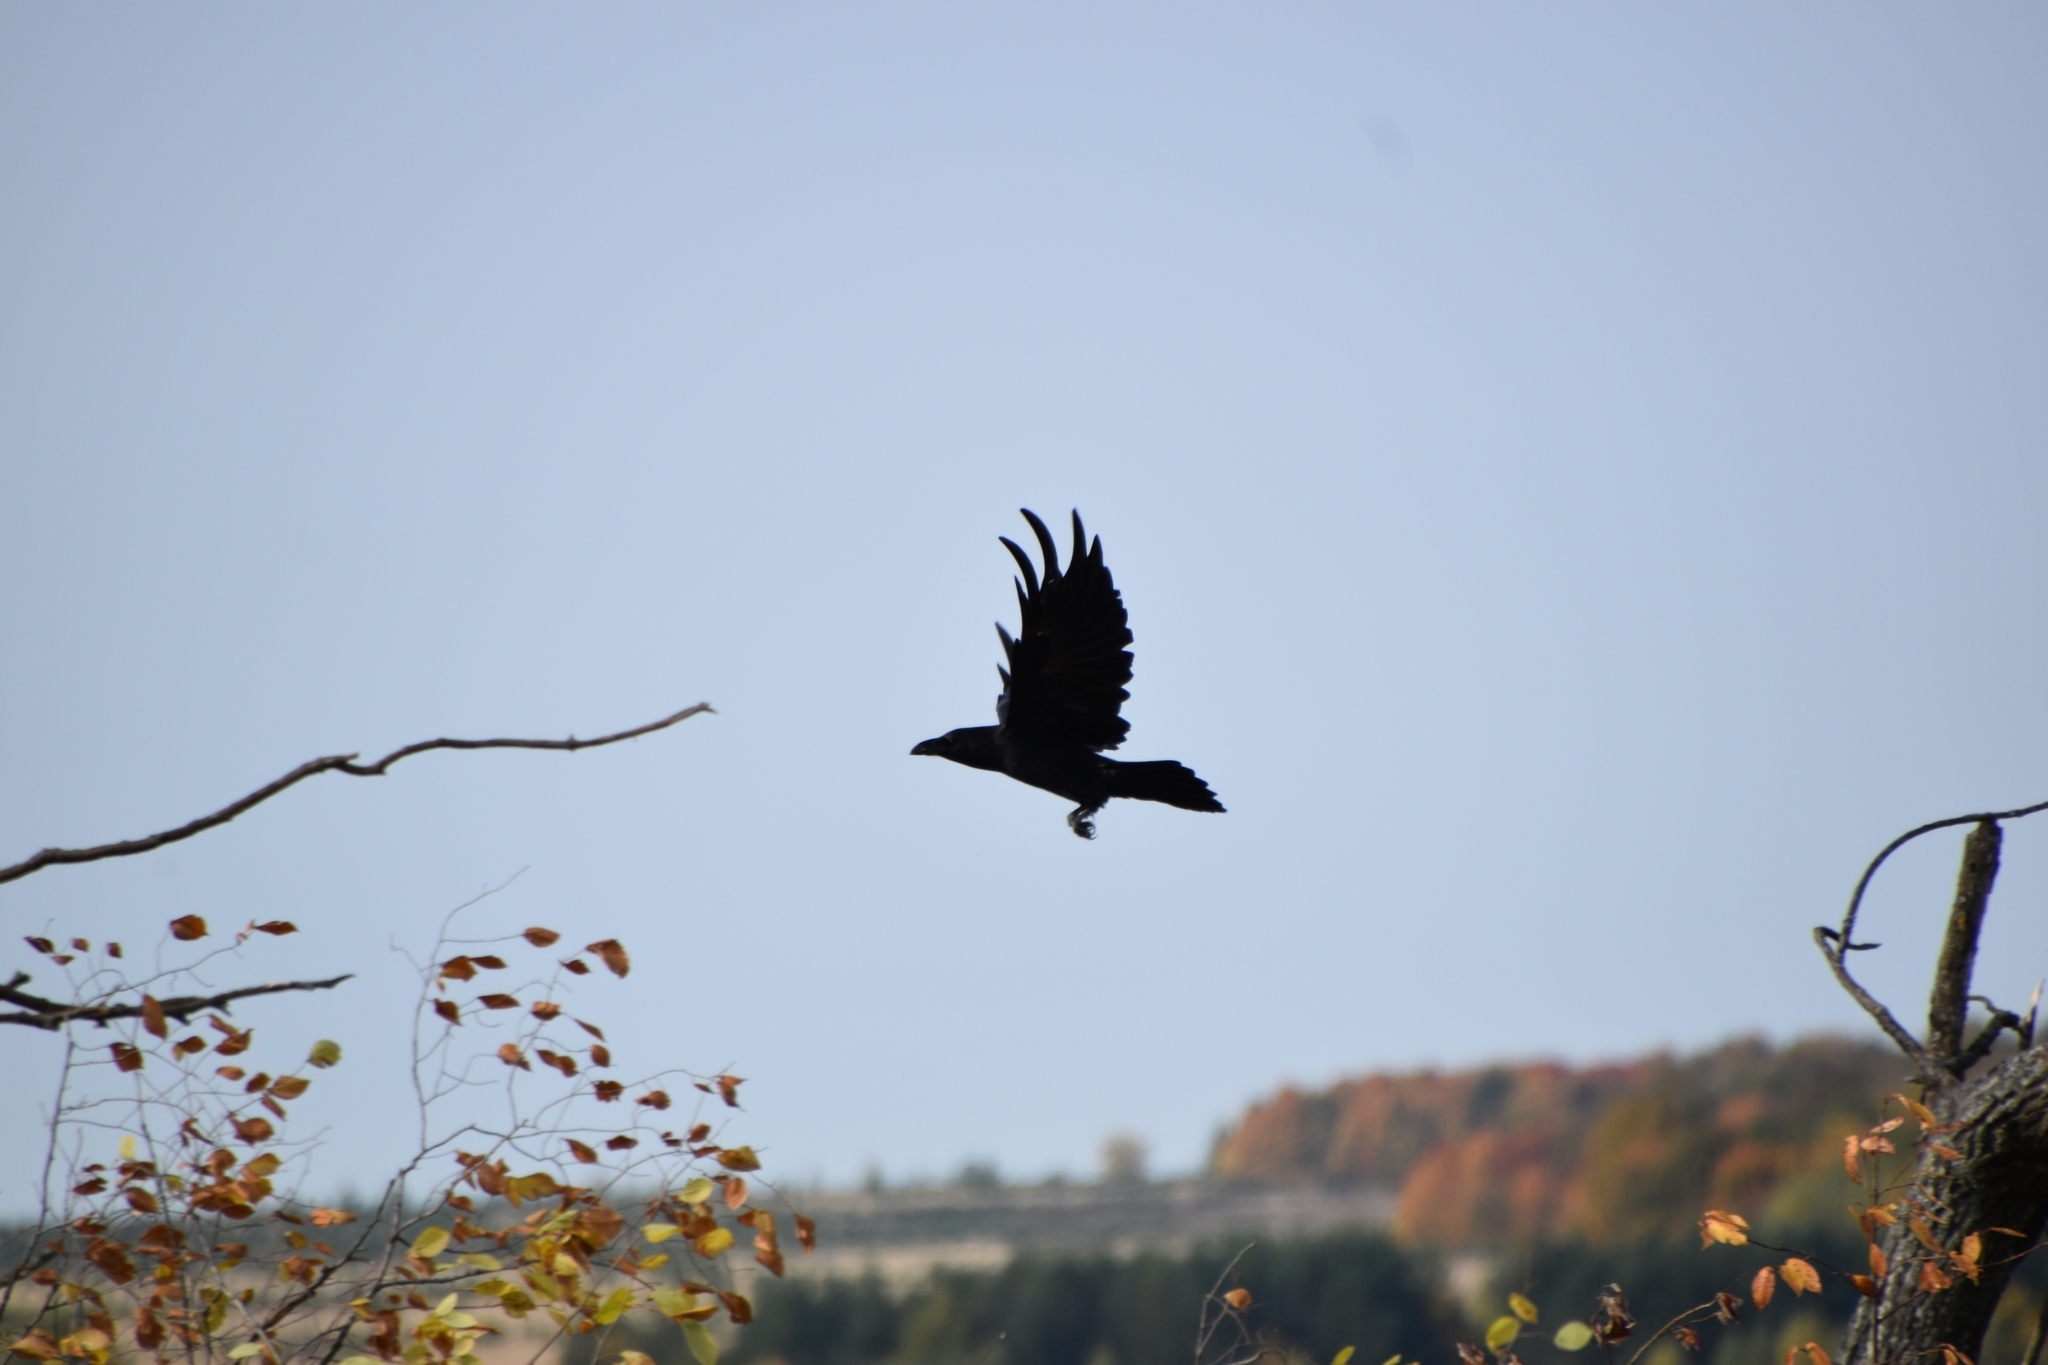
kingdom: Animalia
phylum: Chordata
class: Aves
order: Passeriformes
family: Corvidae
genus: Corvus
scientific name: Corvus corax
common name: Common raven
